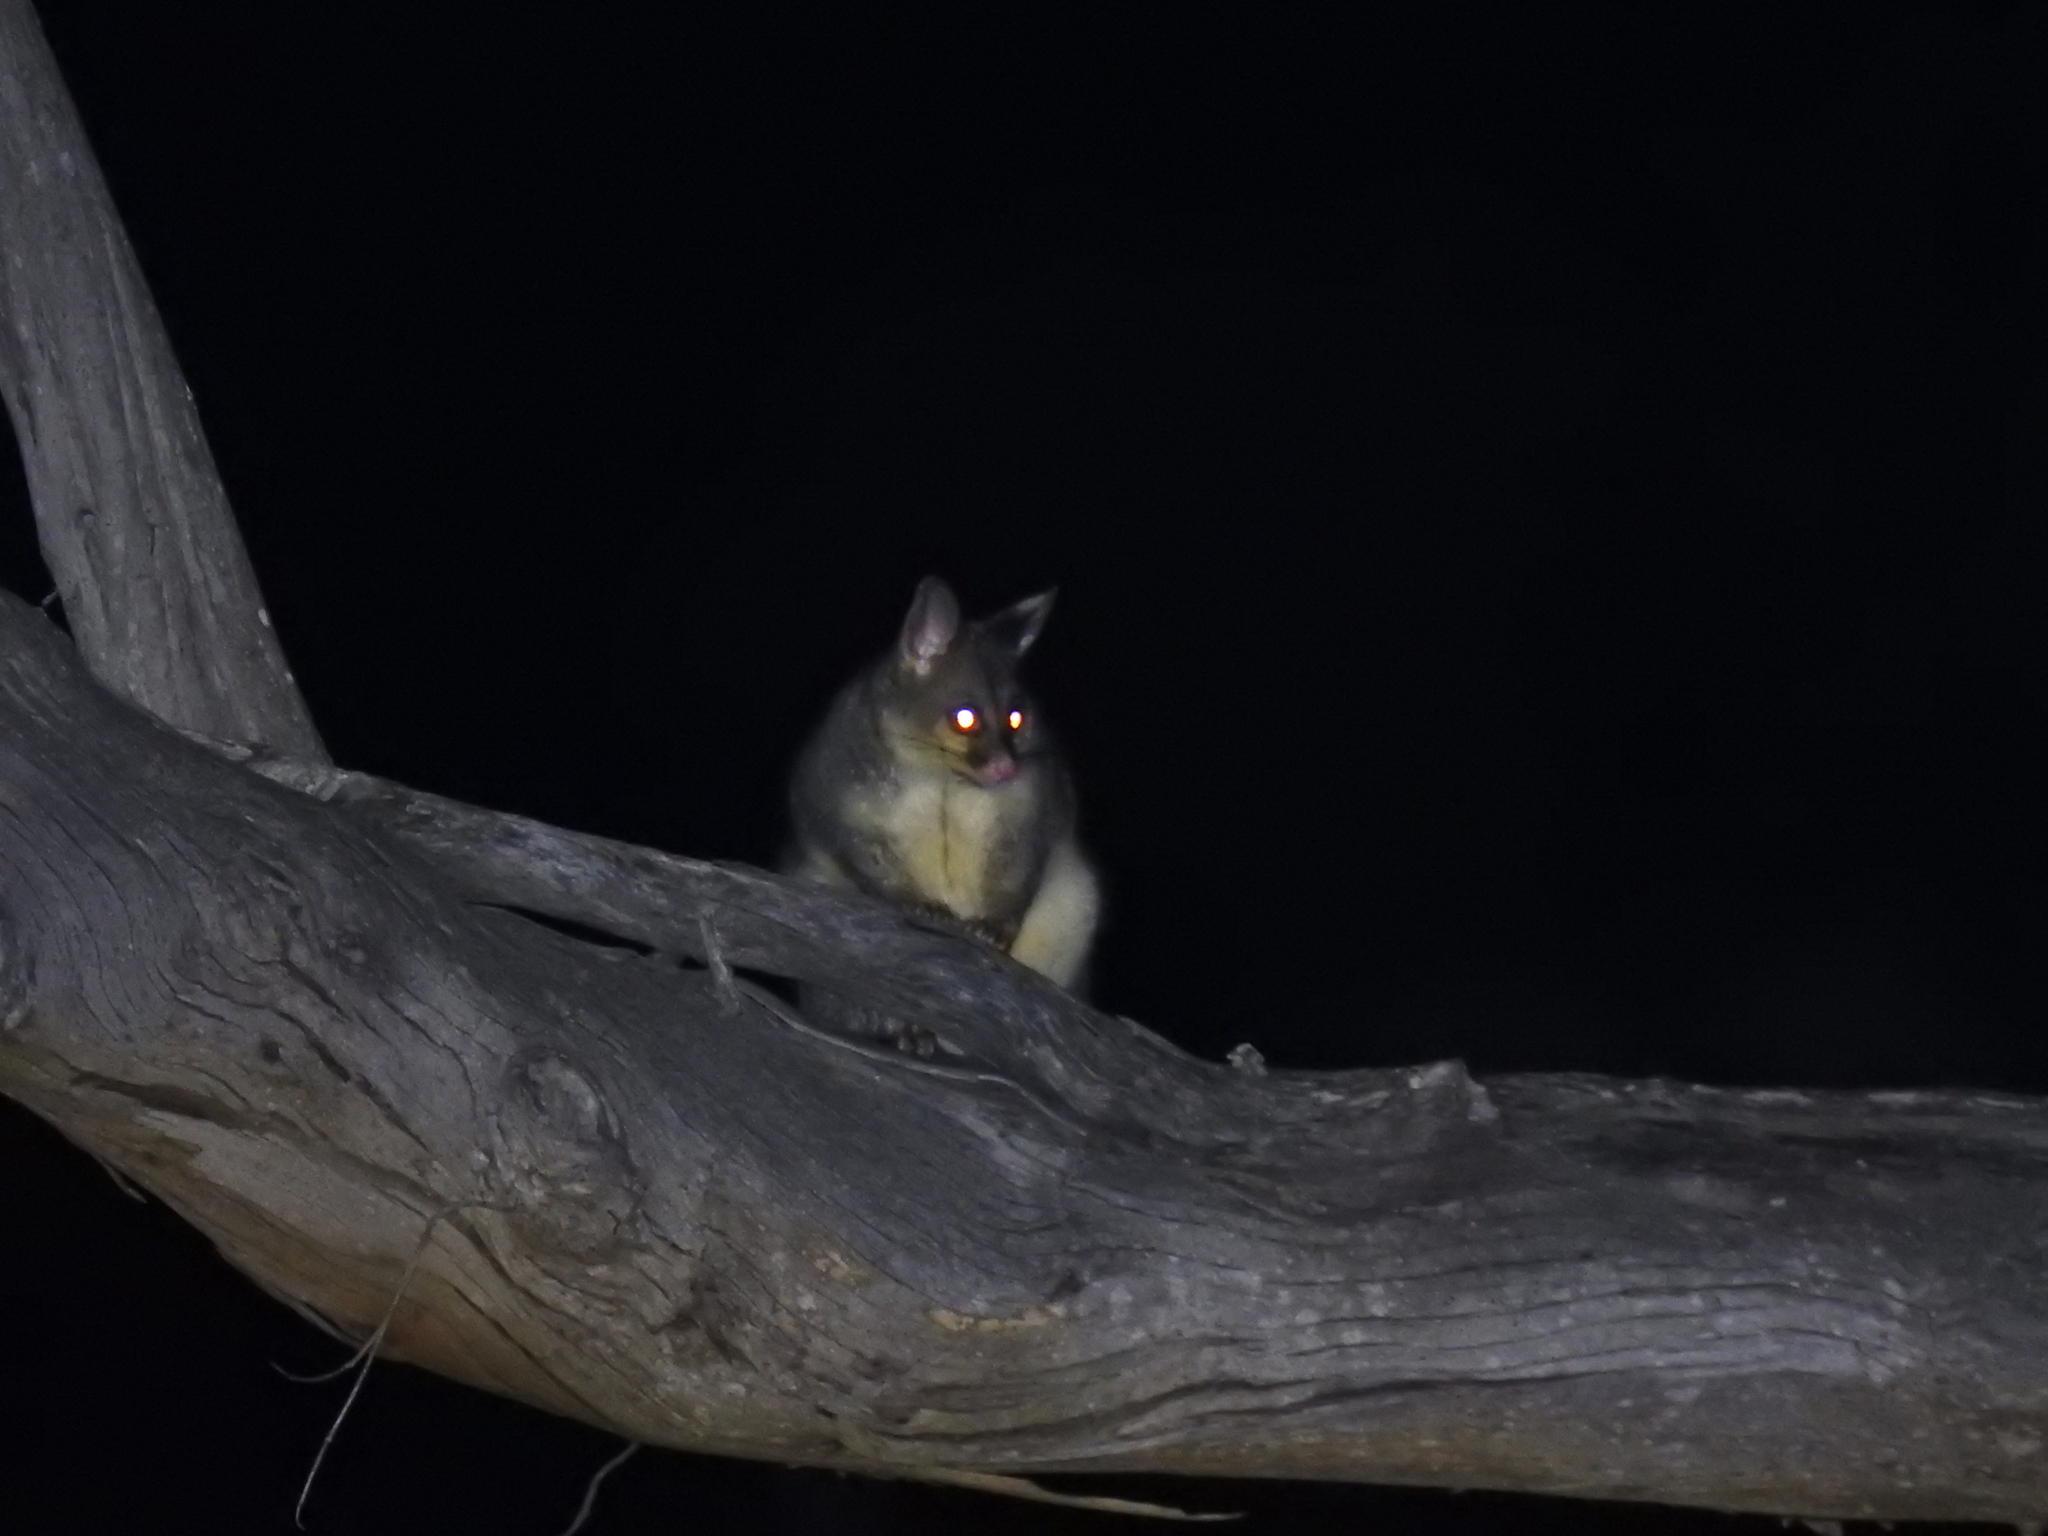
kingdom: Animalia
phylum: Chordata
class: Mammalia
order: Diprotodontia
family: Phalangeridae
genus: Trichosurus
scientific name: Trichosurus vulpecula
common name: Common brushtail
